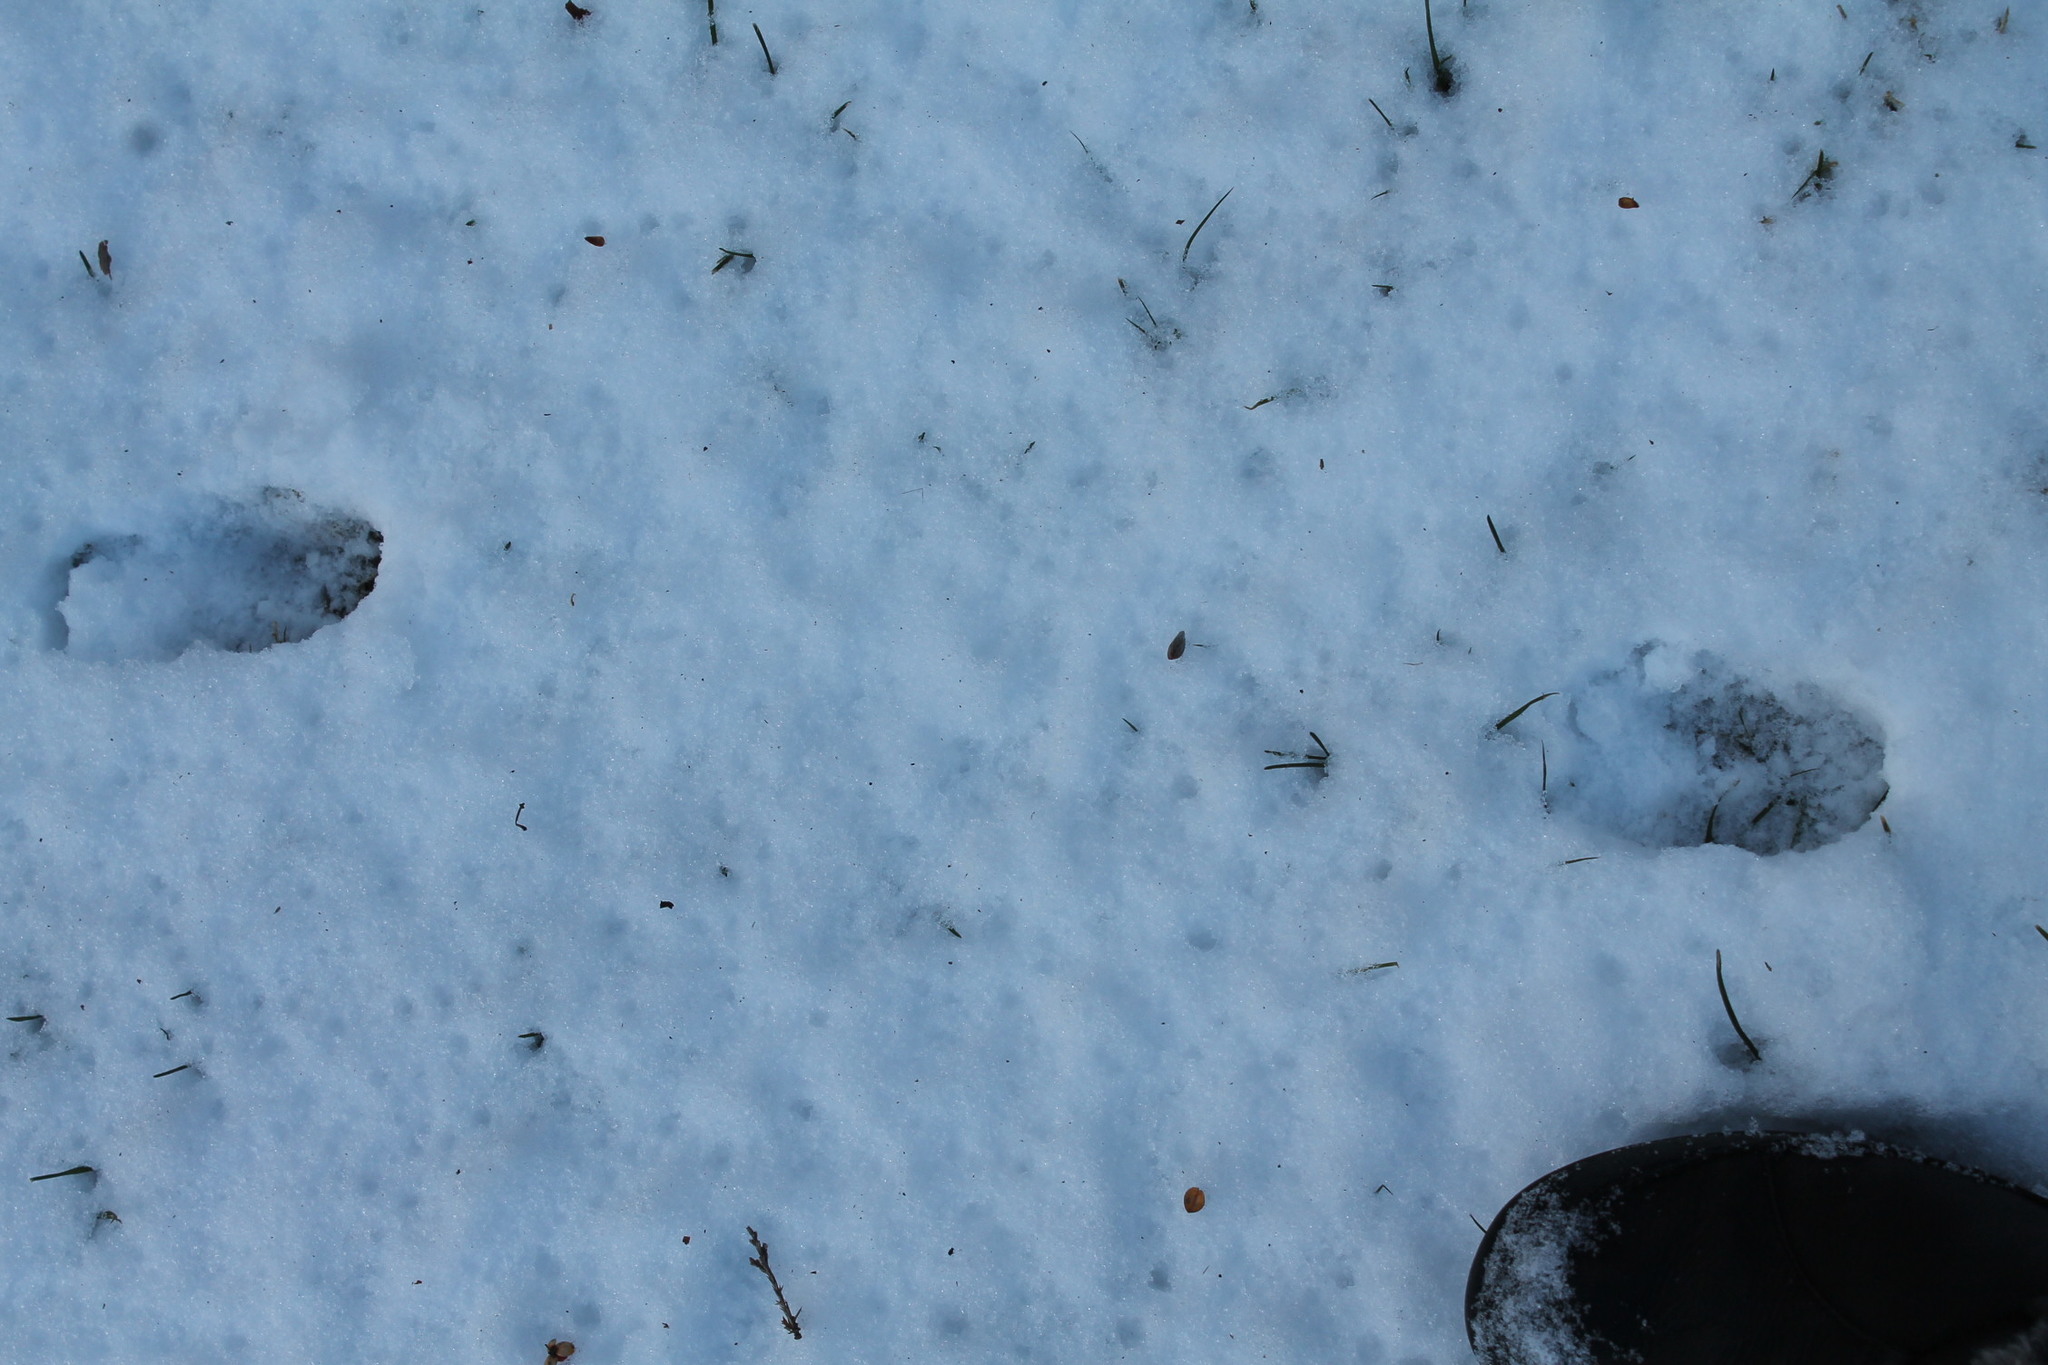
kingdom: Animalia
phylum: Chordata
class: Mammalia
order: Artiodactyla
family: Cervidae
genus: Odocoileus
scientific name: Odocoileus virginianus
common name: White-tailed deer
